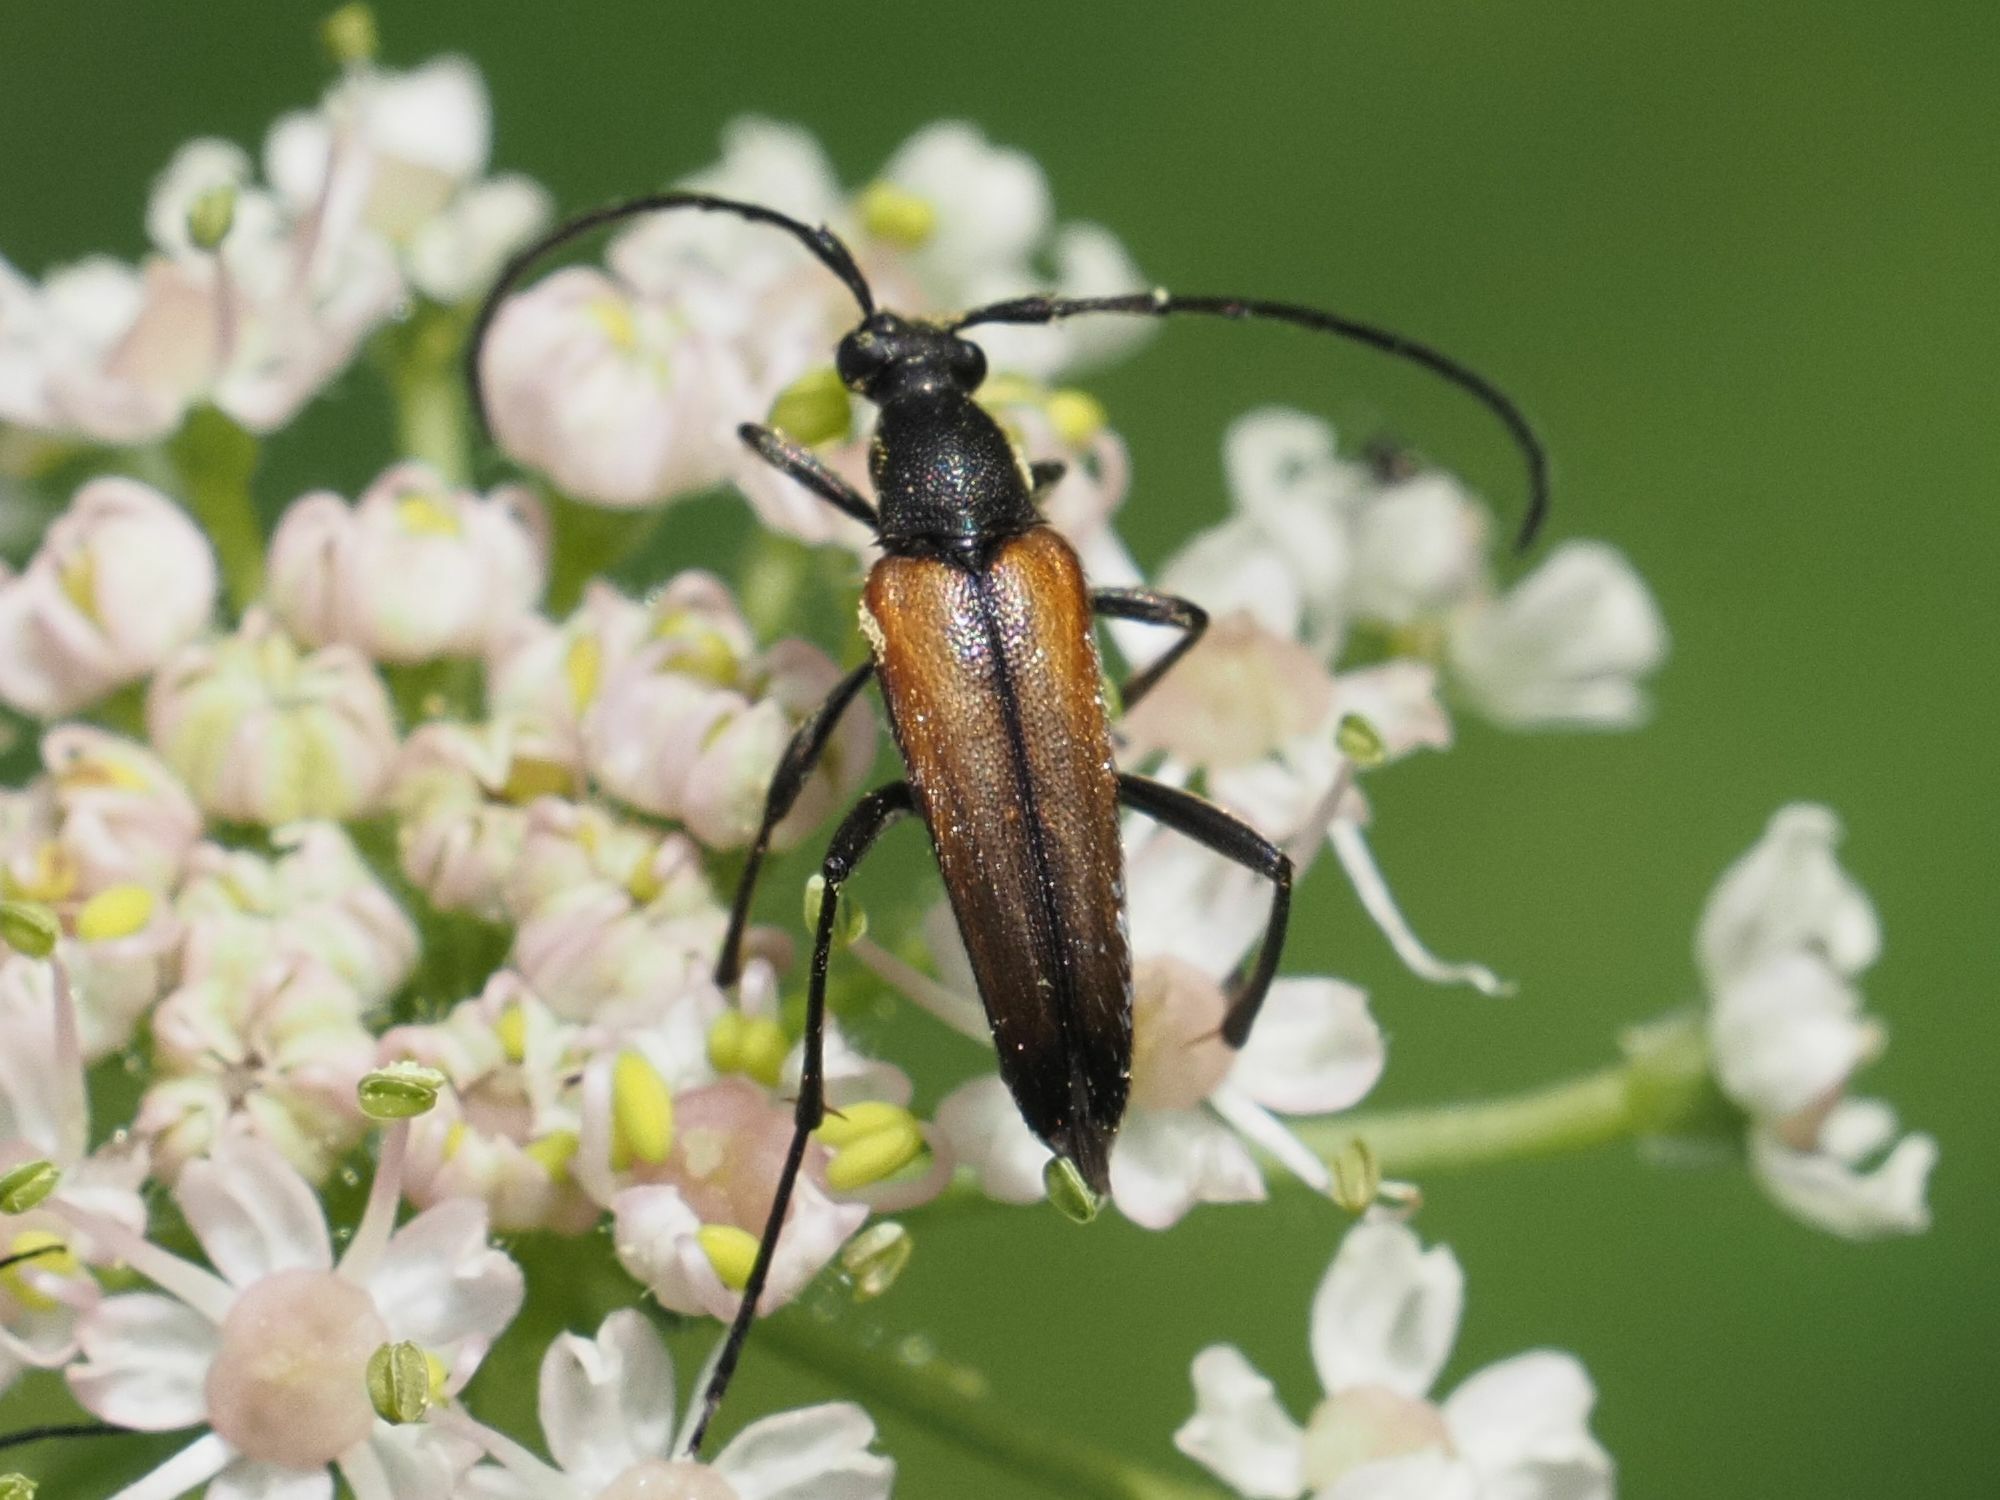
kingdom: Animalia
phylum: Arthropoda
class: Insecta
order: Coleoptera
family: Cerambycidae
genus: Stenurella
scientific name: Stenurella melanura
